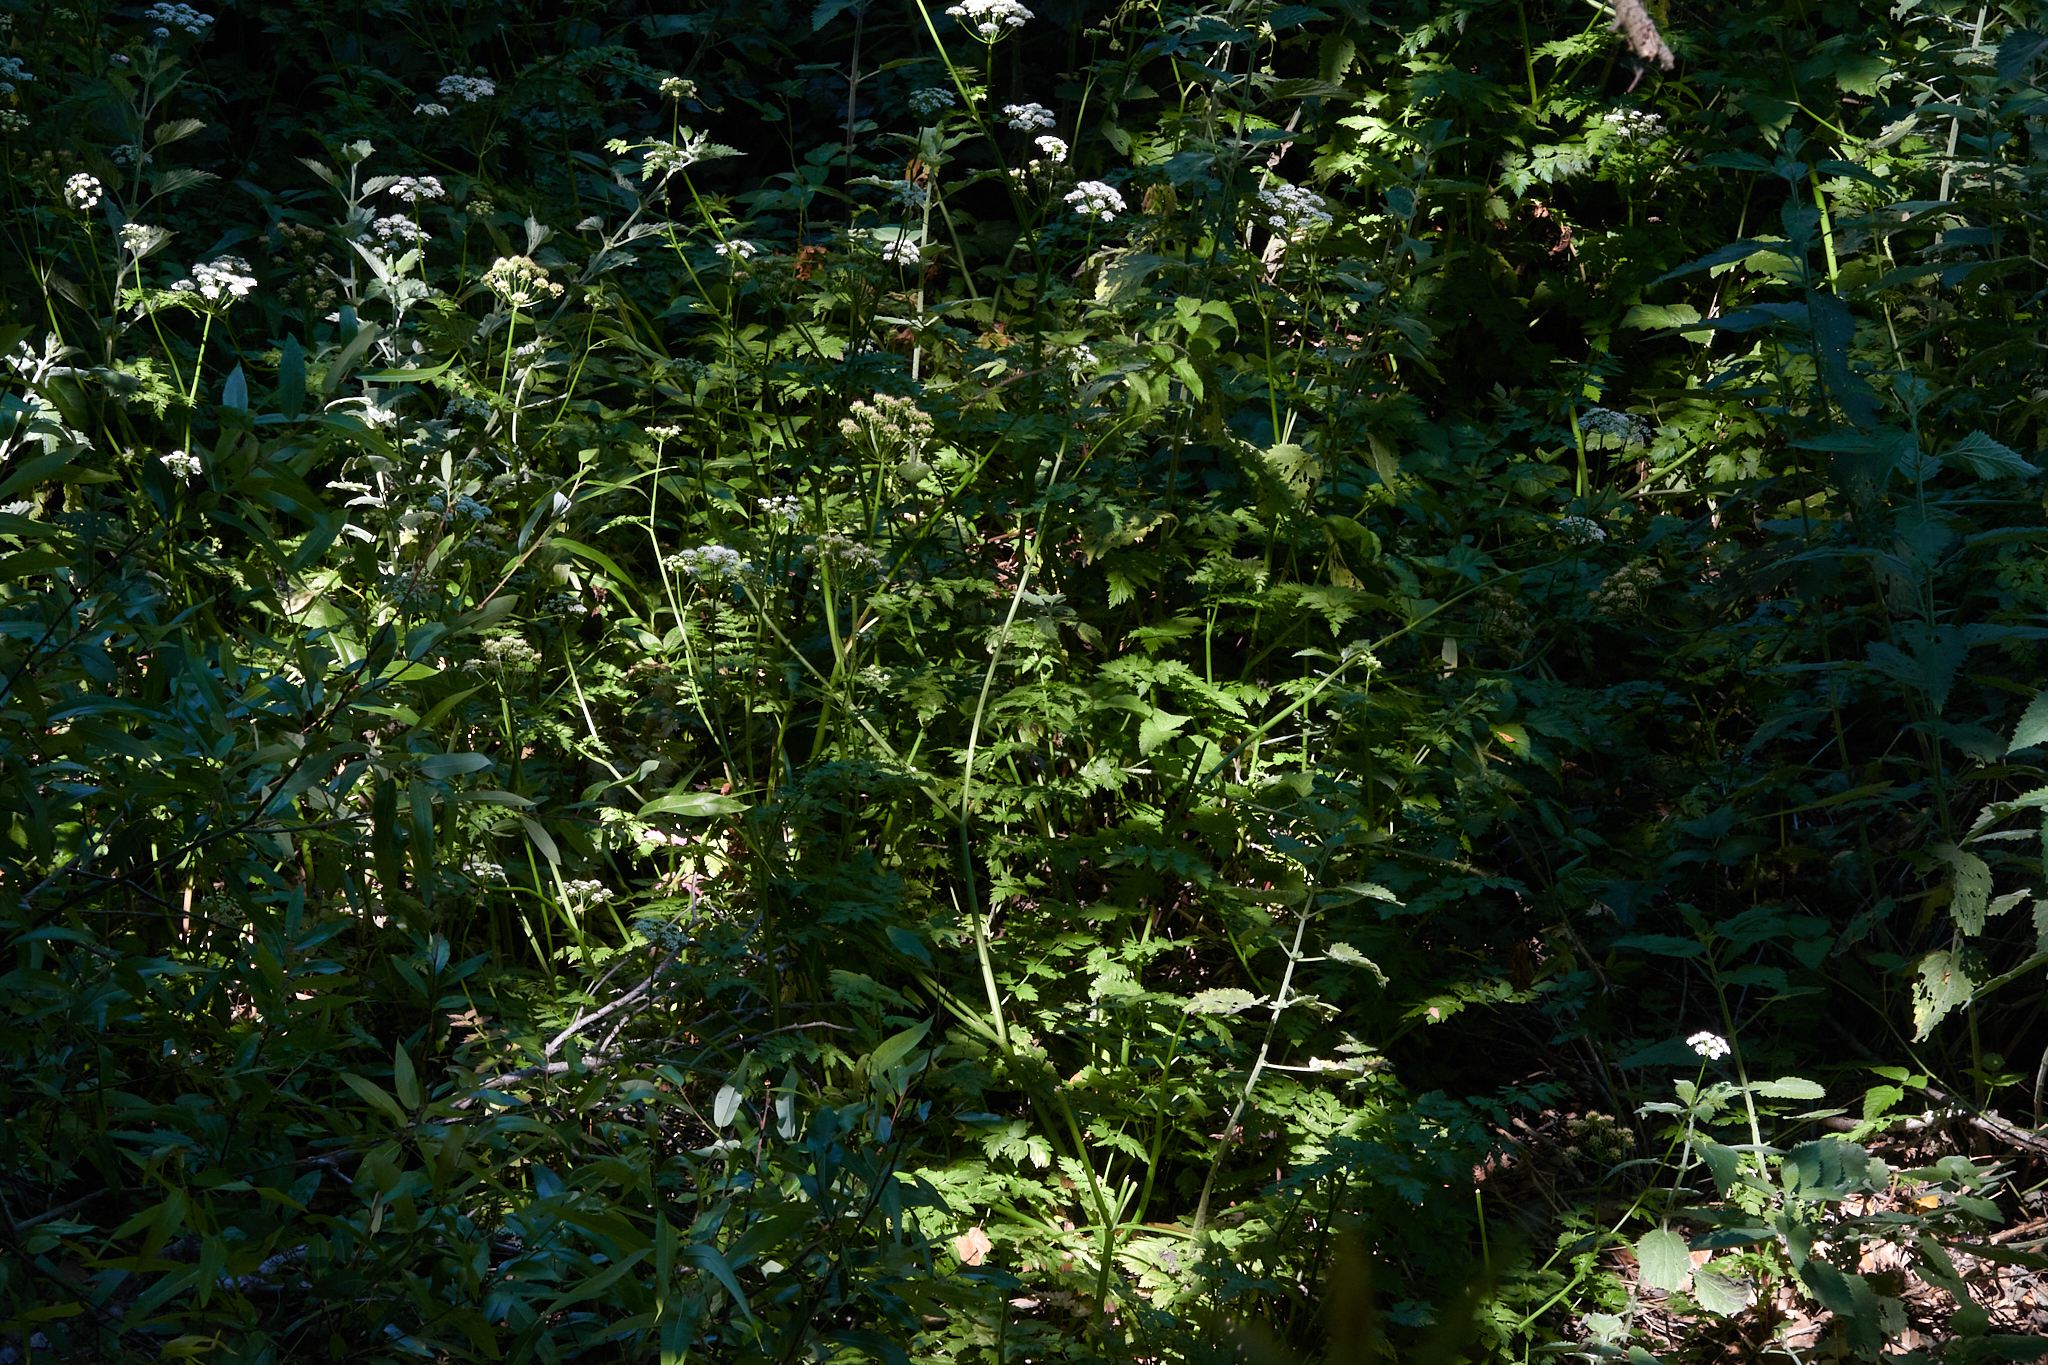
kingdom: Plantae
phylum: Tracheophyta
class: Magnoliopsida
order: Apiales
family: Apiaceae
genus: Oenanthe
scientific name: Oenanthe sarmentosa
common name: American water-parsley
